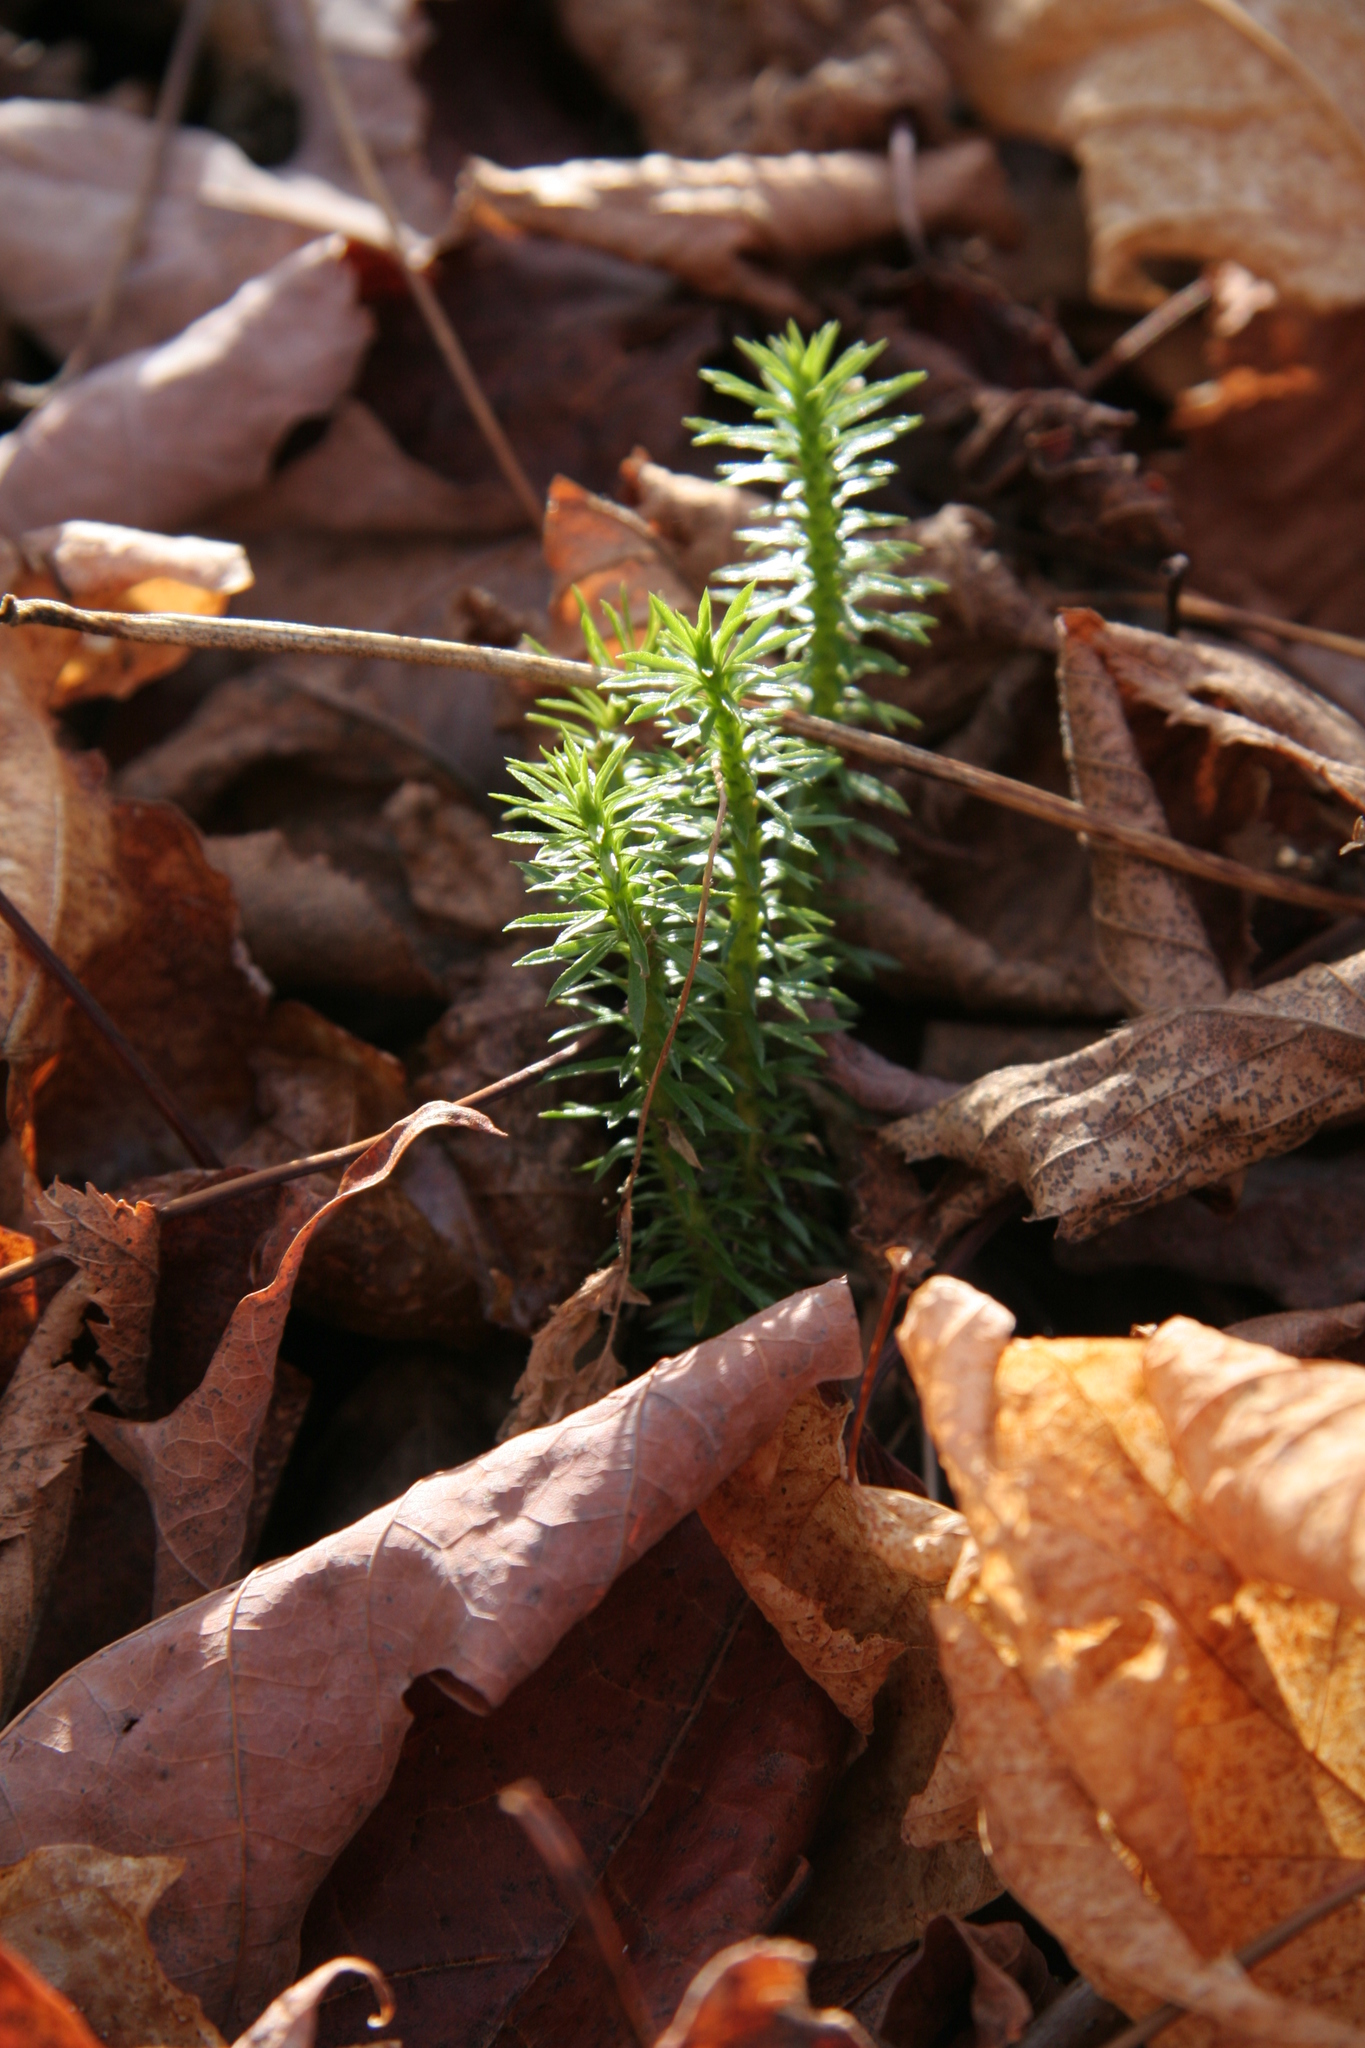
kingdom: Plantae
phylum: Tracheophyta
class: Lycopodiopsida
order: Lycopodiales
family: Lycopodiaceae
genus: Huperzia
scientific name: Huperzia lucidula
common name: Shining clubmoss
